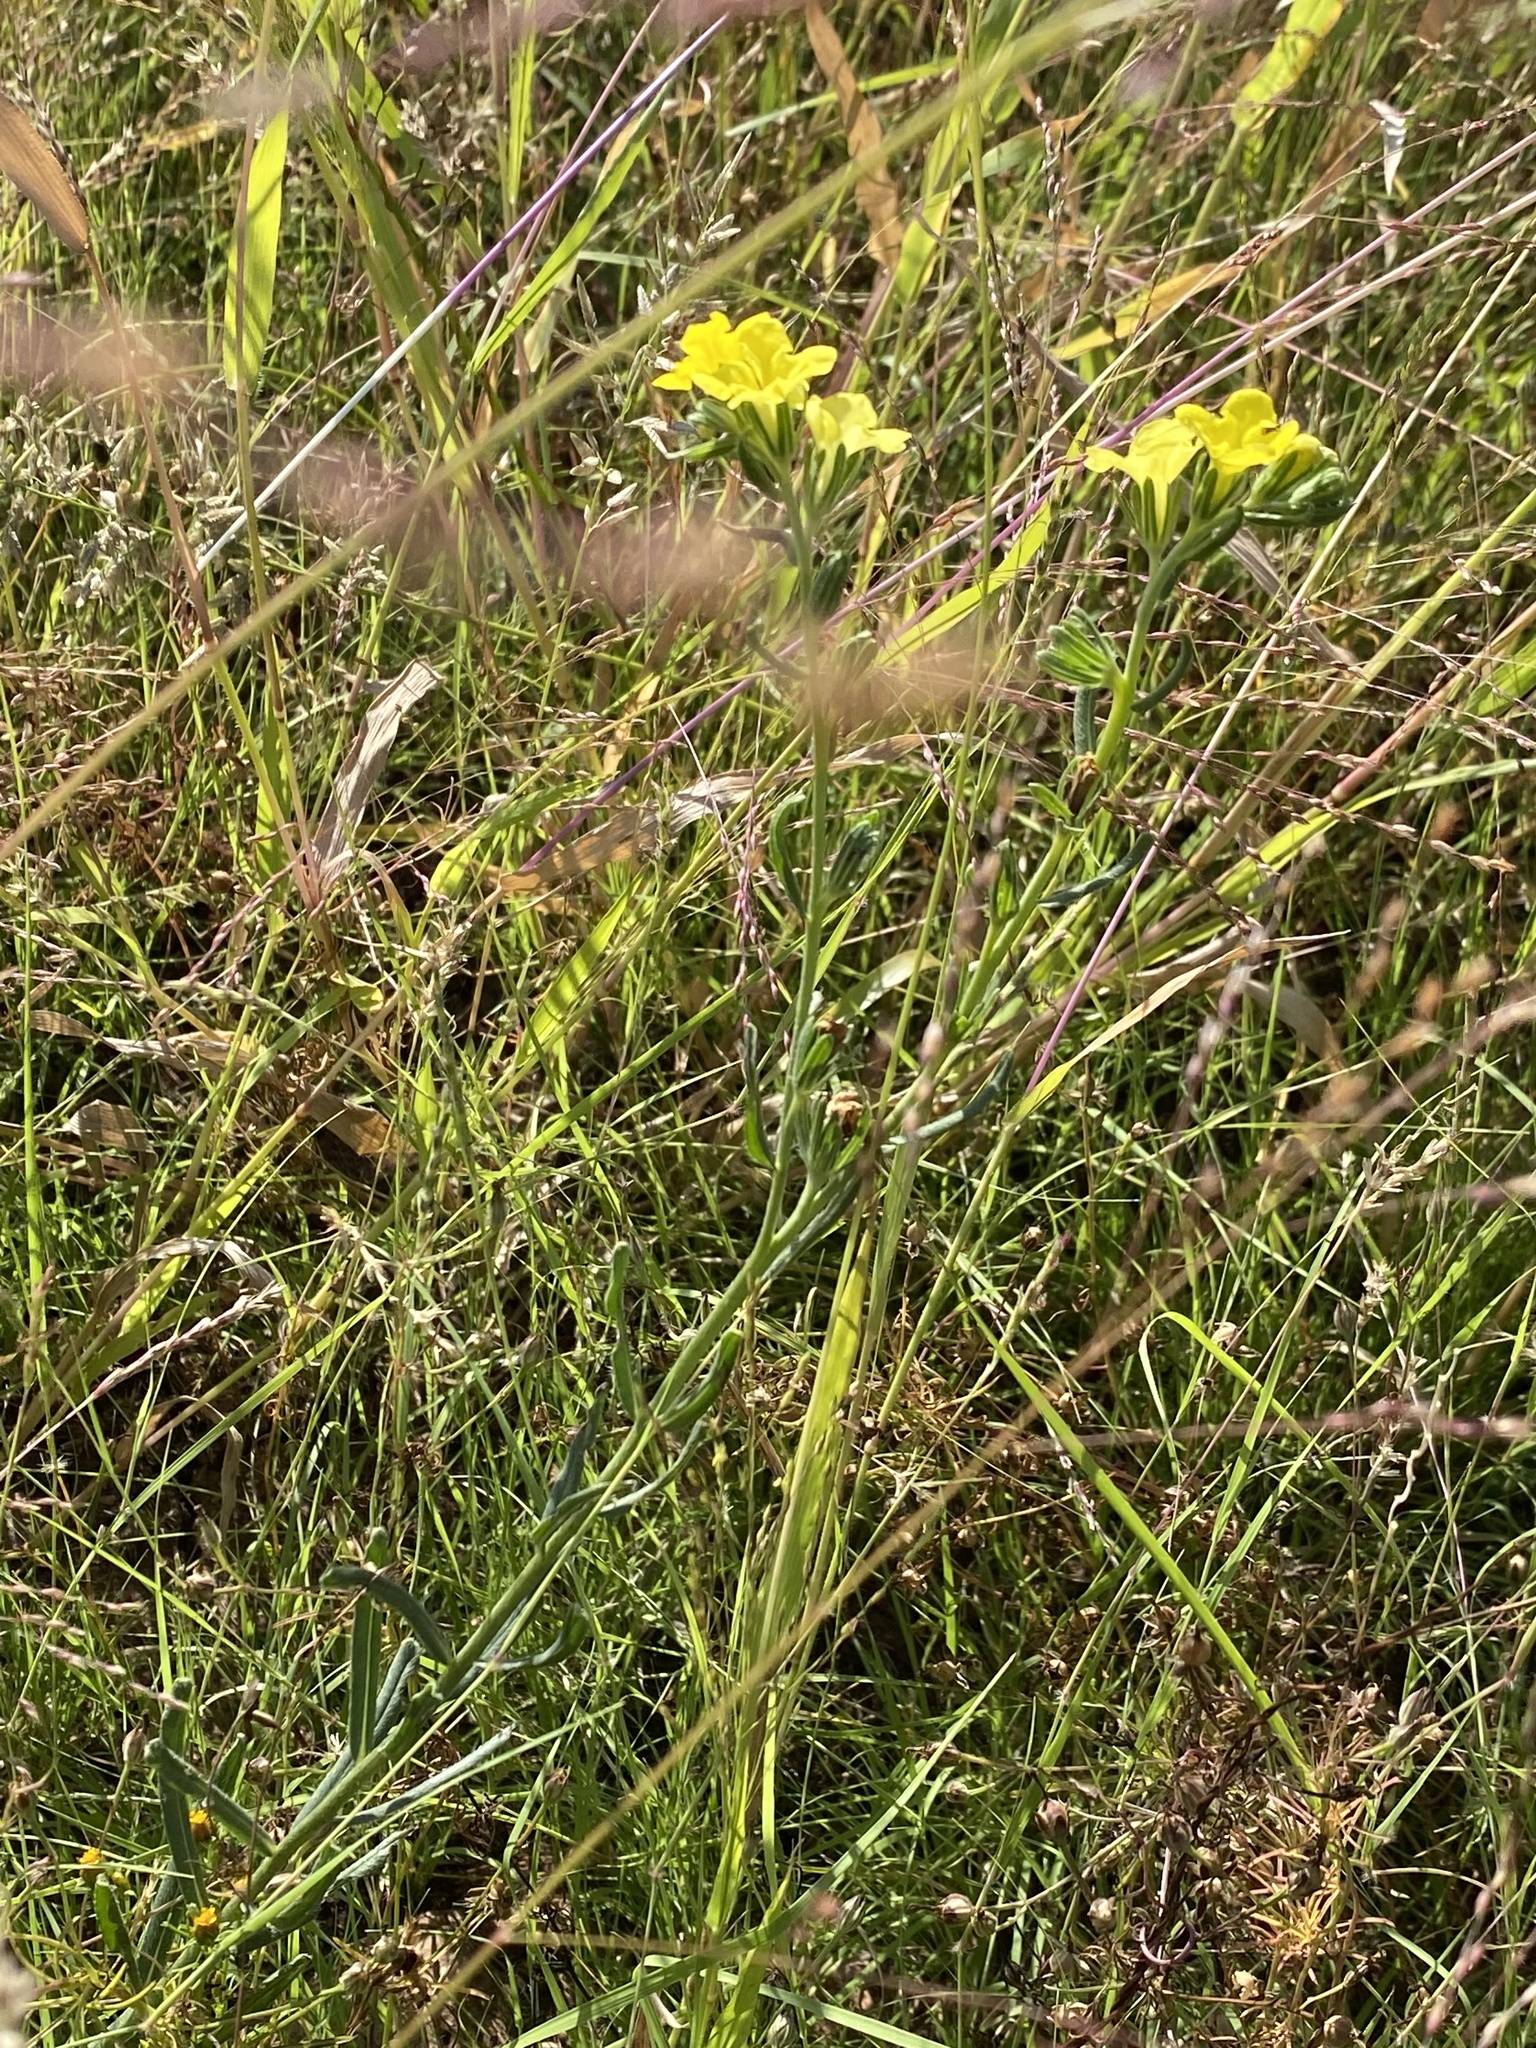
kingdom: Plantae
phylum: Tracheophyta
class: Magnoliopsida
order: Boraginales
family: Boraginaceae
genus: Lithospermum
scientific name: Lithospermum cobrense
